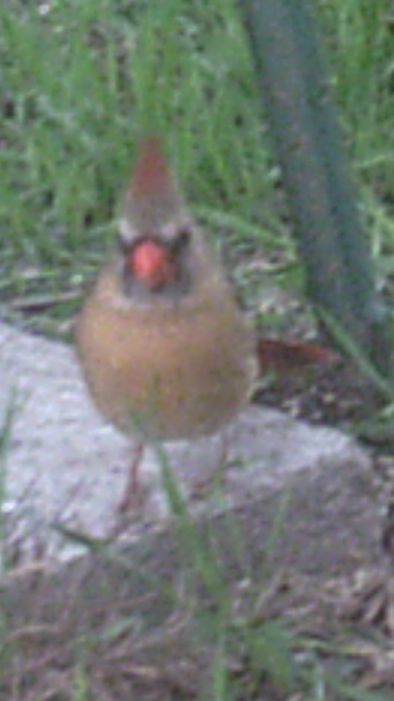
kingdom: Animalia
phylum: Chordata
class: Aves
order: Passeriformes
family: Cardinalidae
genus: Cardinalis
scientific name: Cardinalis cardinalis
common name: Northern cardinal
